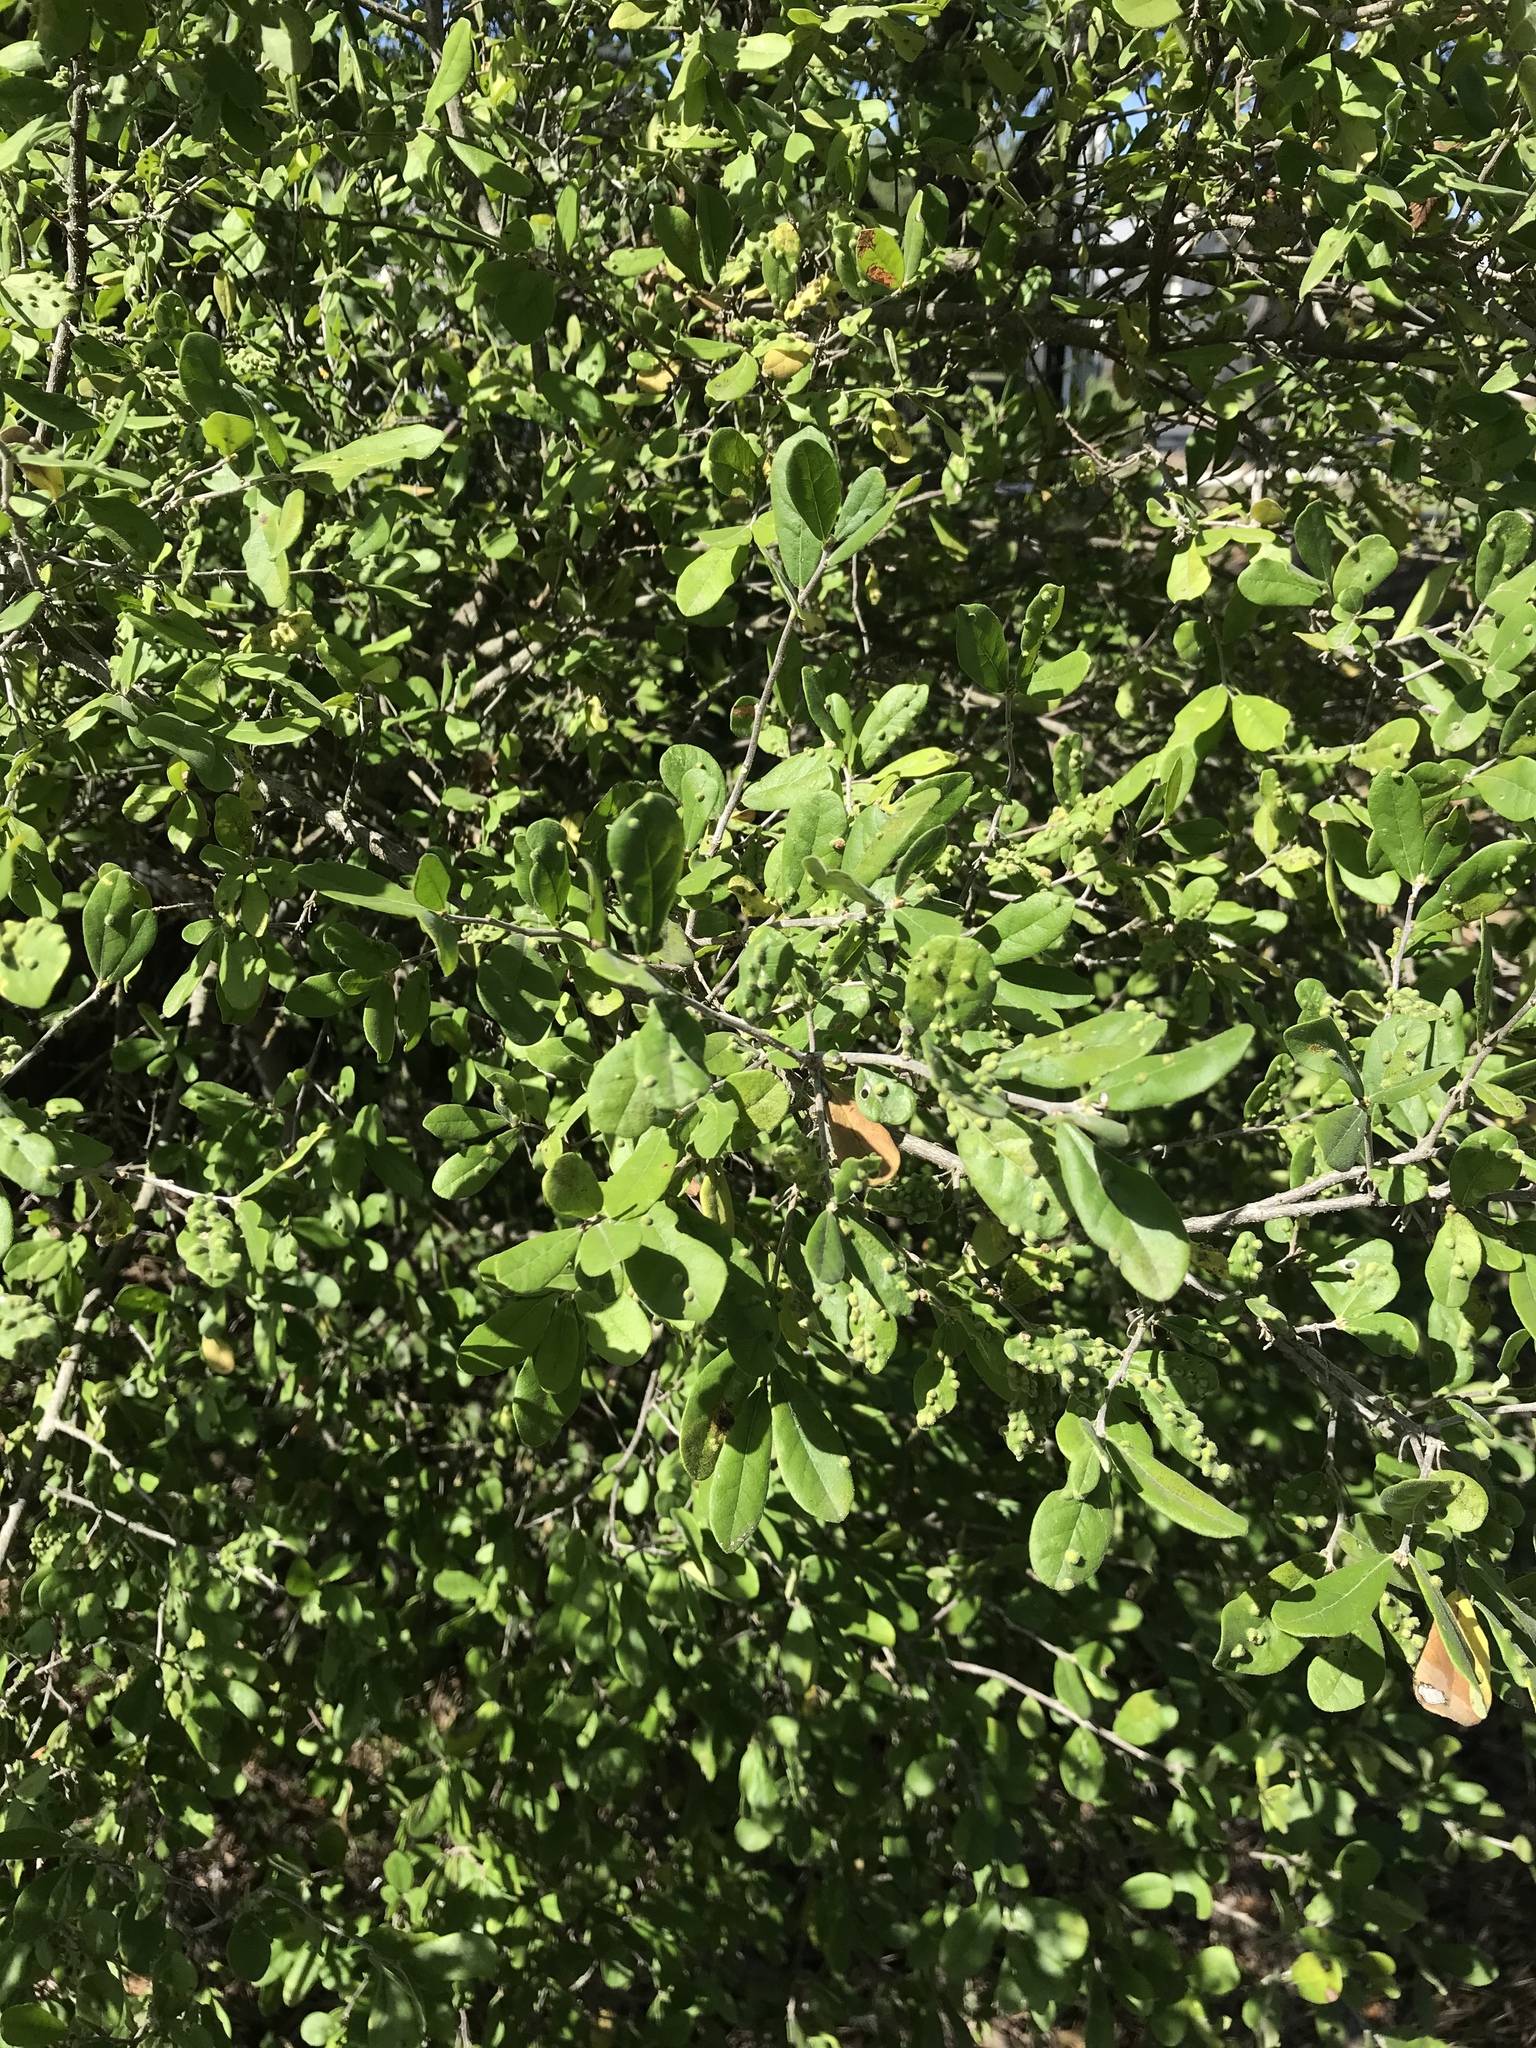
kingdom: Plantae
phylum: Tracheophyta
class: Magnoliopsida
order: Ericales
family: Ebenaceae
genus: Diospyros
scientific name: Diospyros texana
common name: Texas persimmon
